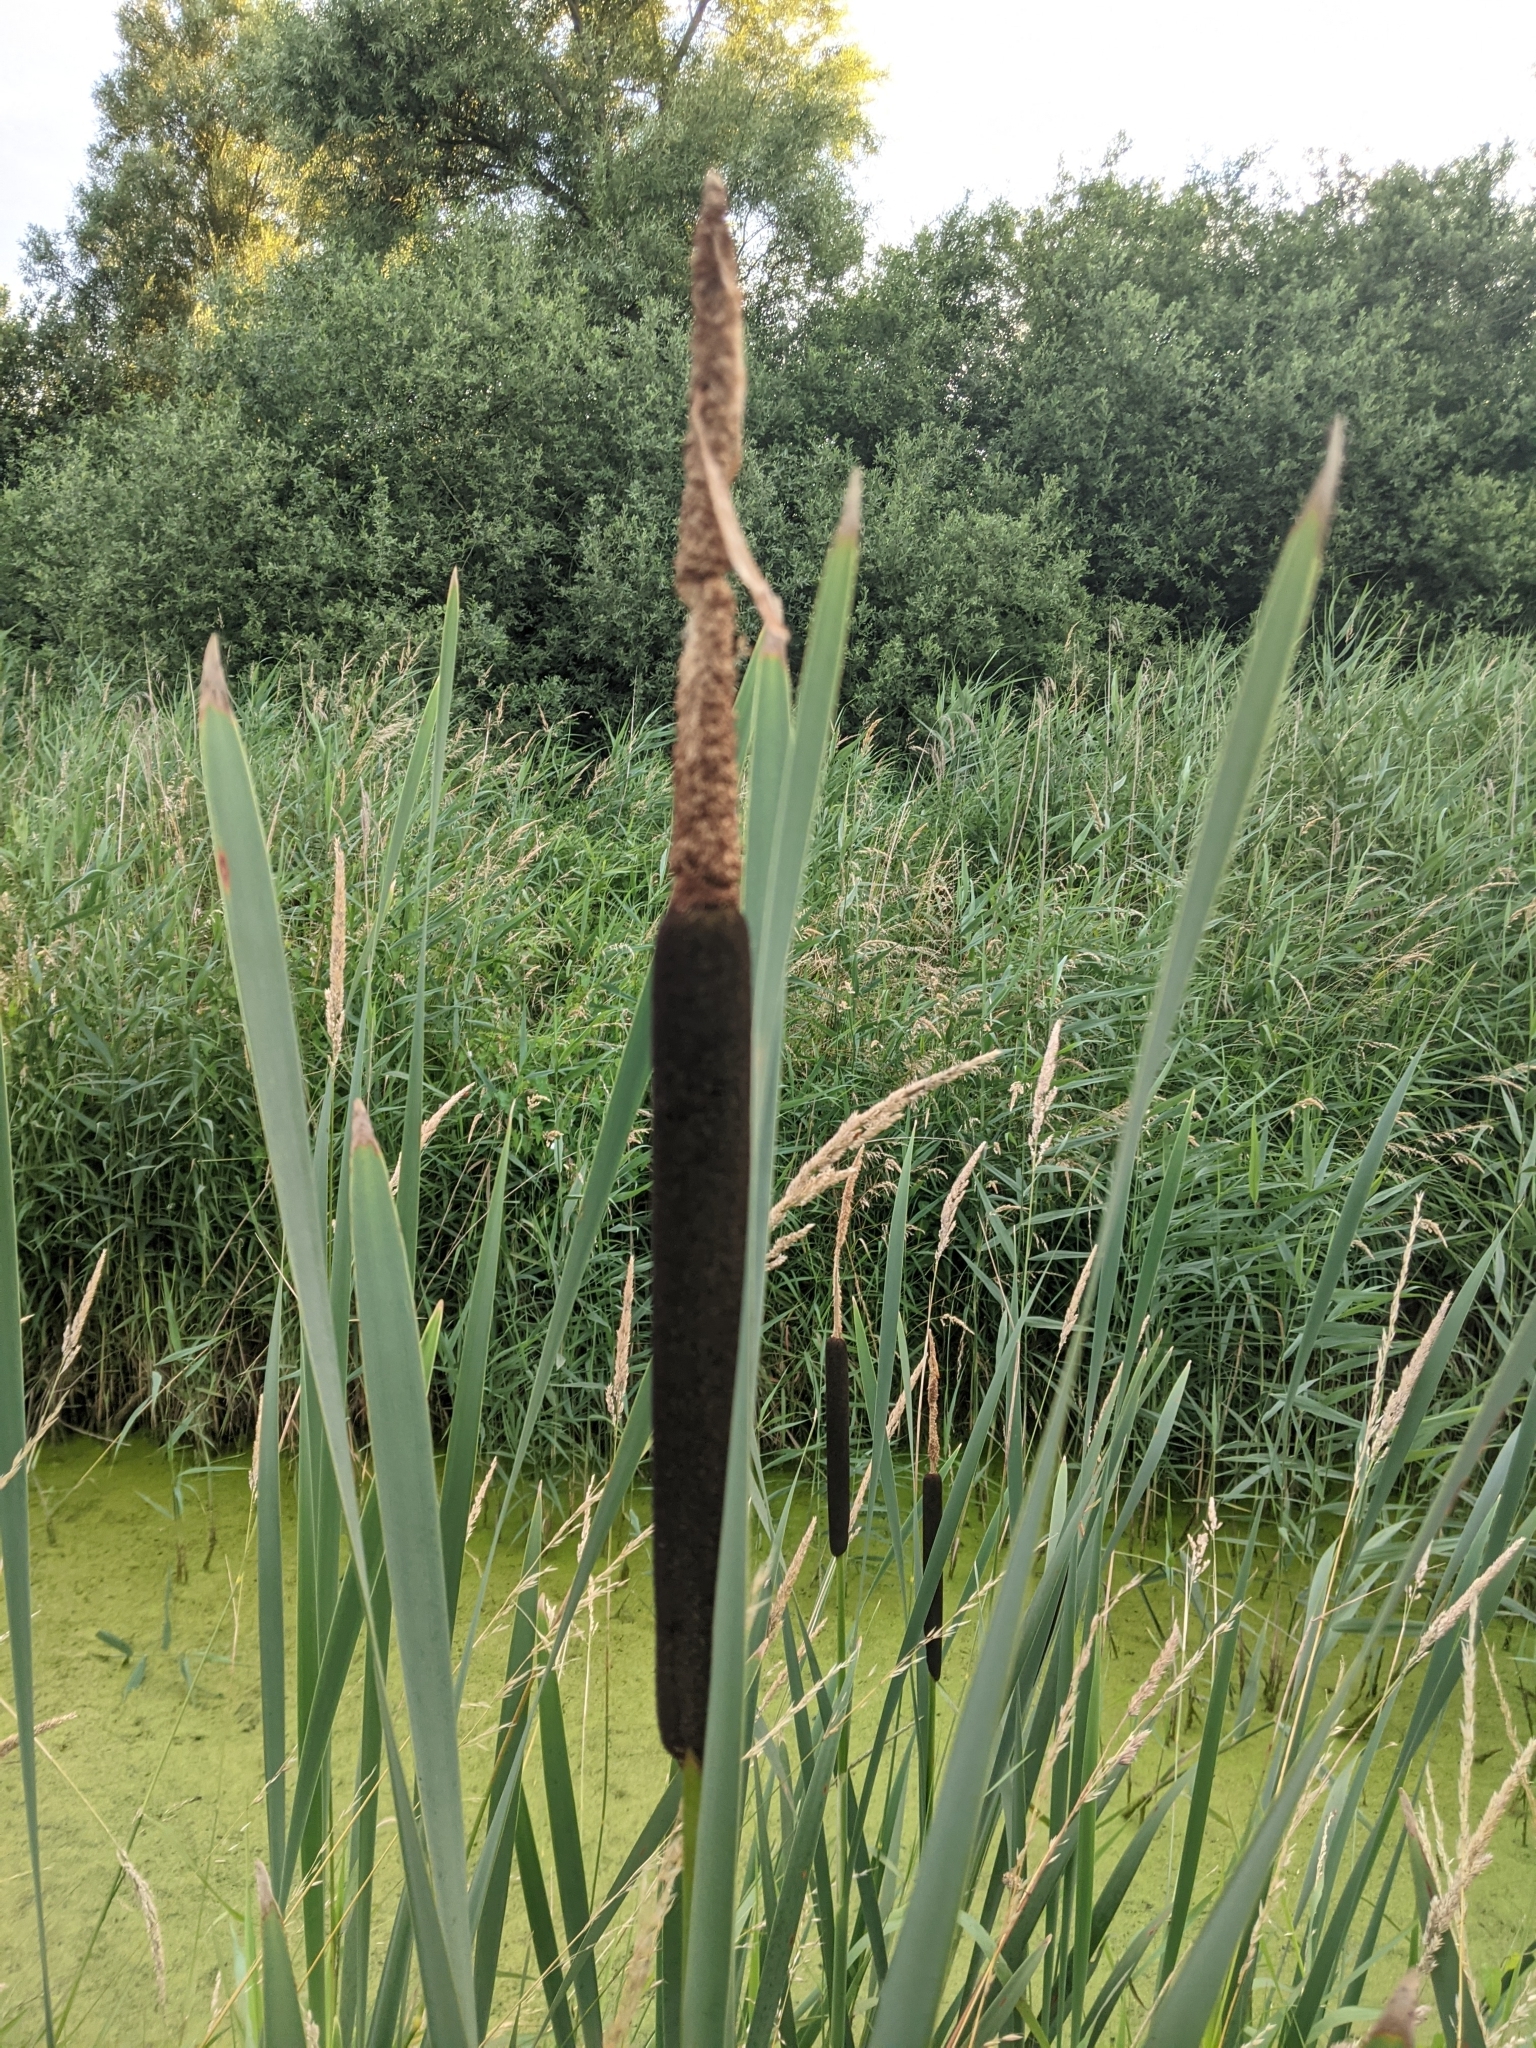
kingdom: Plantae
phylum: Tracheophyta
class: Liliopsida
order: Poales
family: Typhaceae
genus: Typha
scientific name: Typha latifolia
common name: Broadleaf cattail
